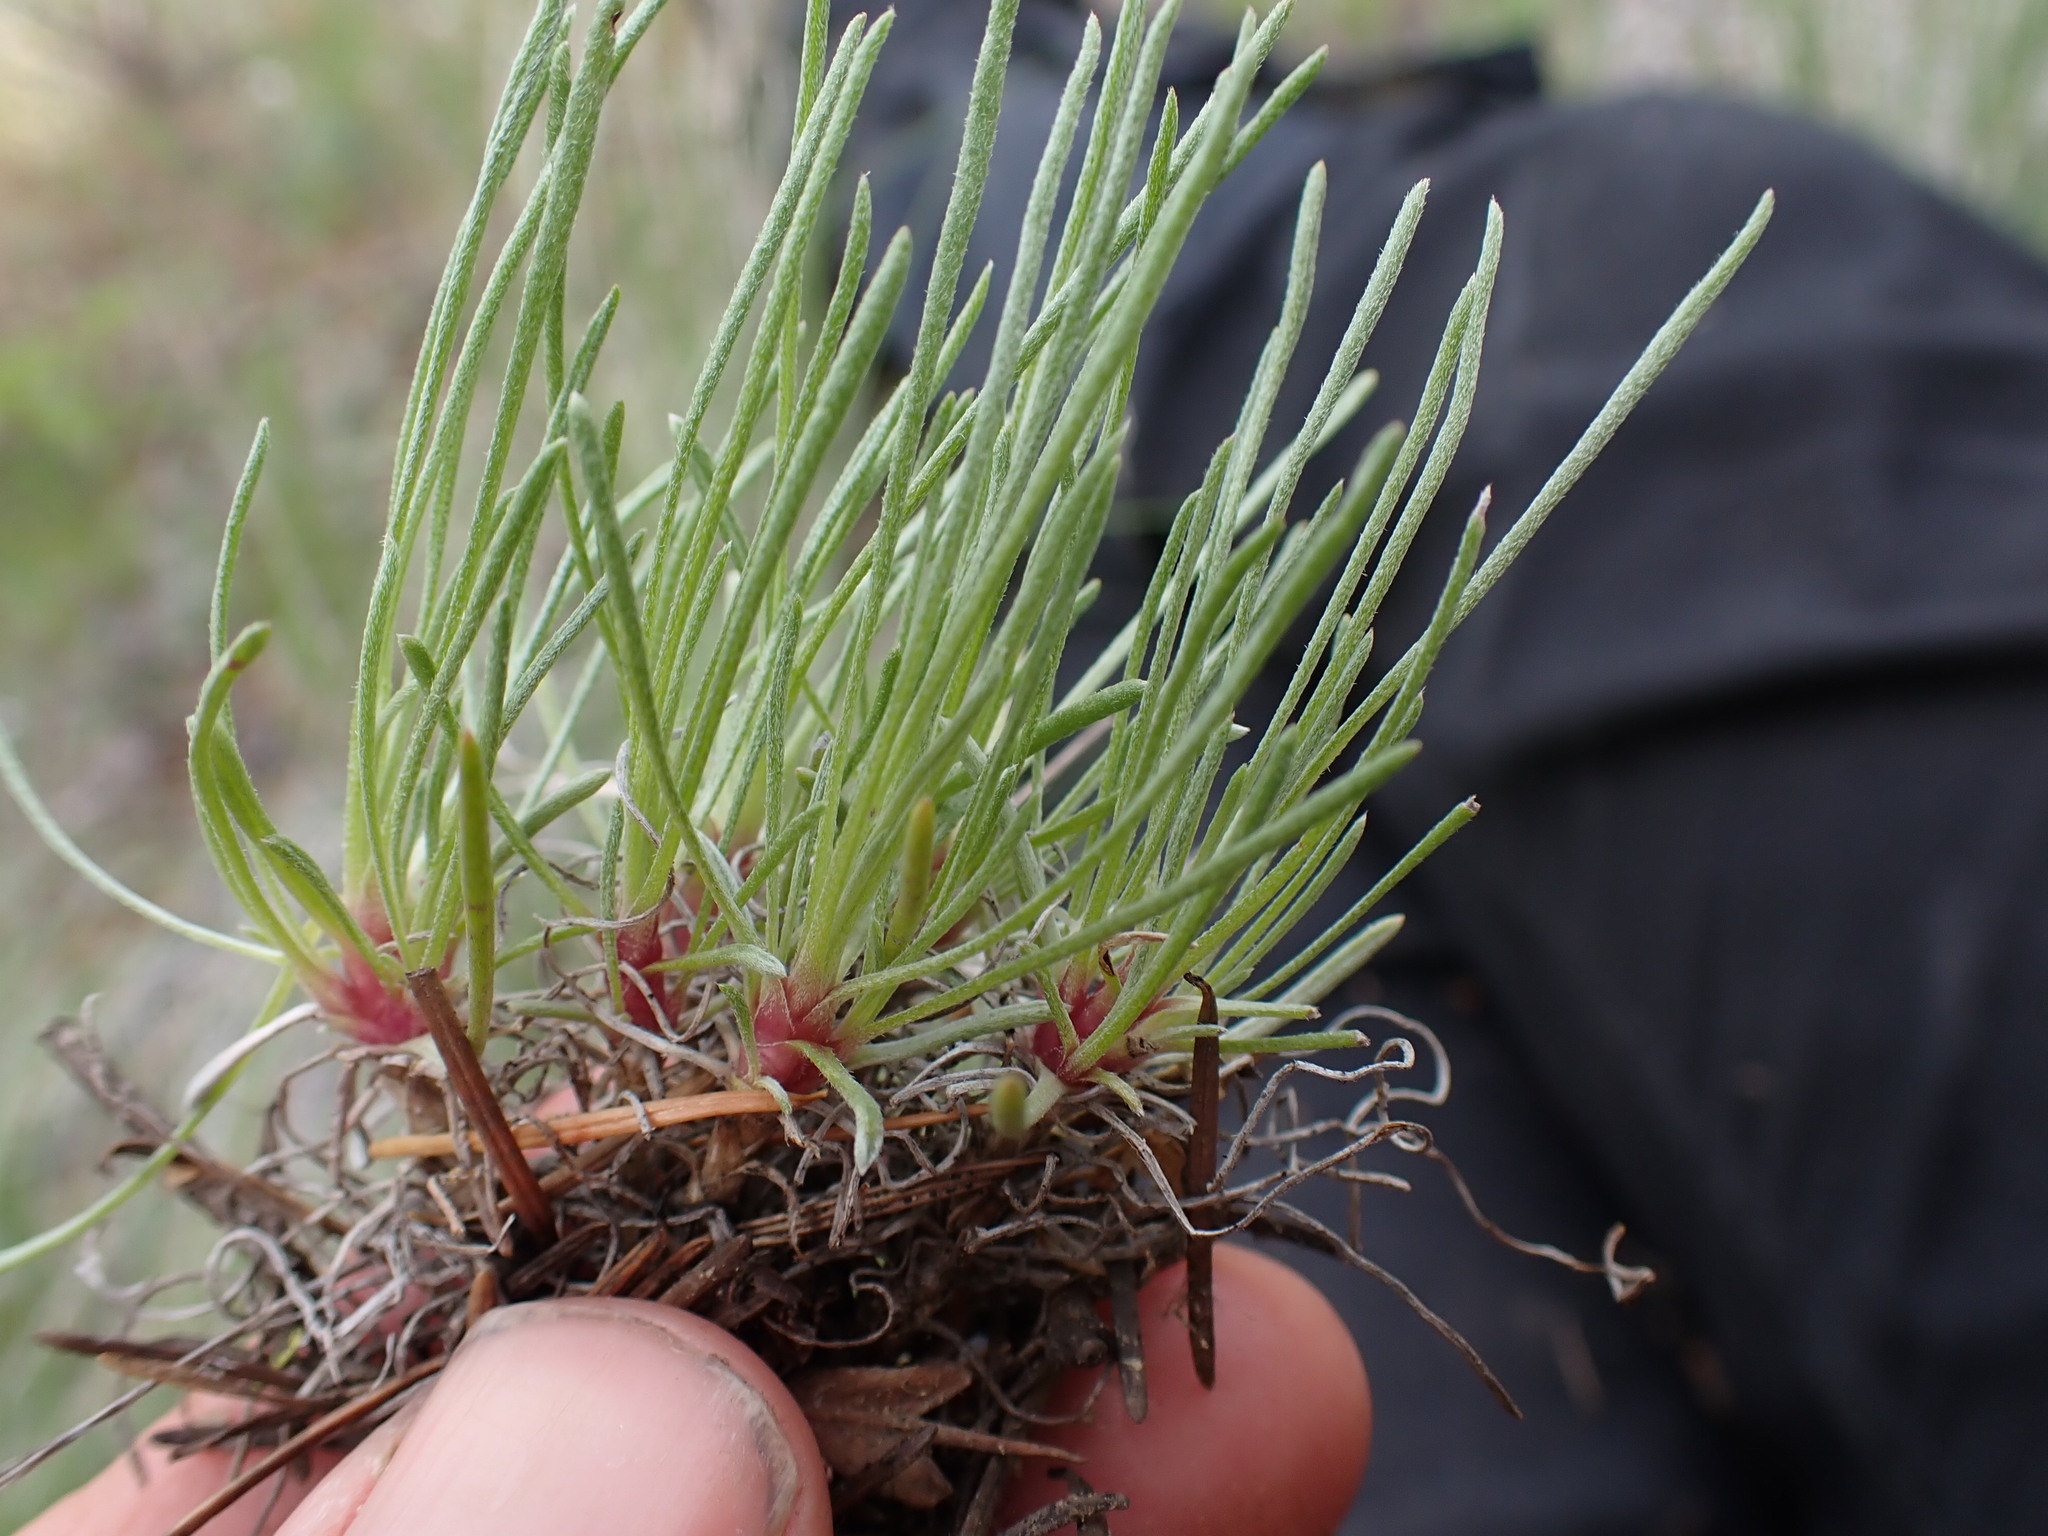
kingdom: Plantae
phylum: Tracheophyta
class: Magnoliopsida
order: Asterales
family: Asteraceae
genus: Erigeron
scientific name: Erigeron linearis
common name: Desert yellow fleabane
